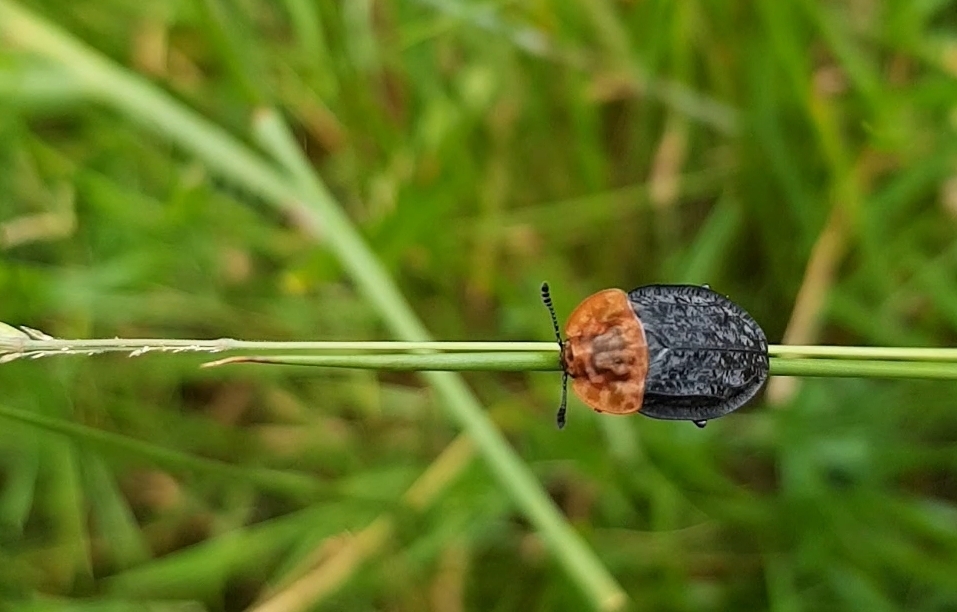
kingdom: Animalia
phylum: Arthropoda
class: Insecta
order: Coleoptera
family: Staphylinidae
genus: Oiceoptoma
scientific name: Oiceoptoma thoracicum
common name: Red-breasted carrion beetle
